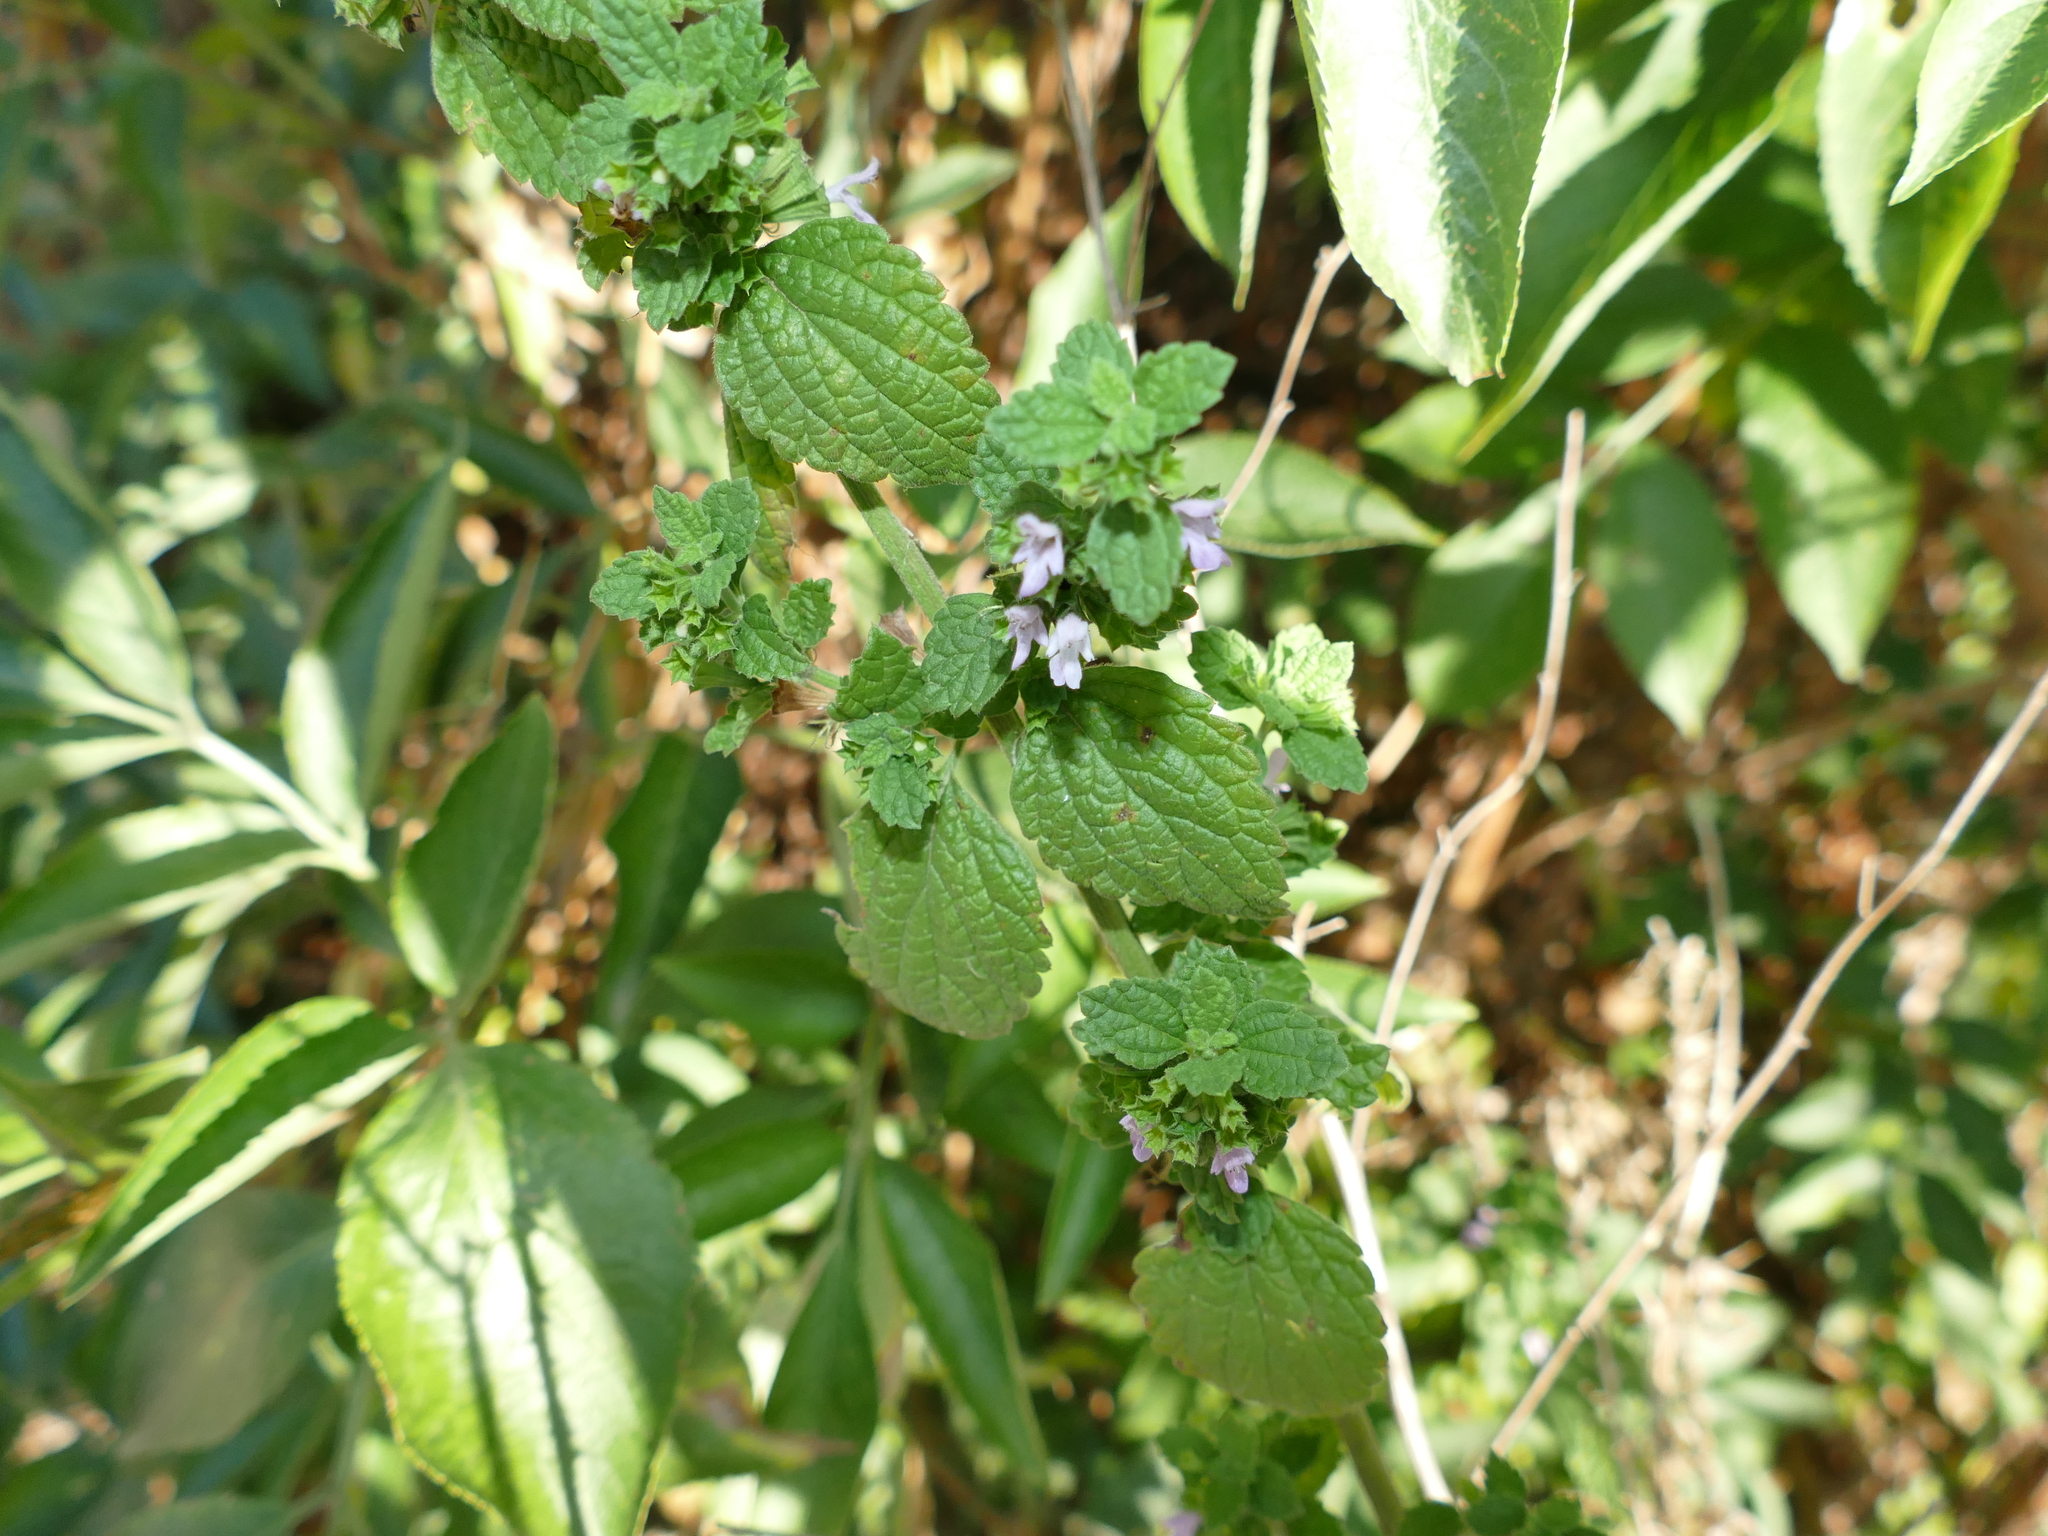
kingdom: Plantae
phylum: Tracheophyta
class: Magnoliopsida
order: Lamiales
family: Lamiaceae
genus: Ballota
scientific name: Ballota nigra
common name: Black horehound
